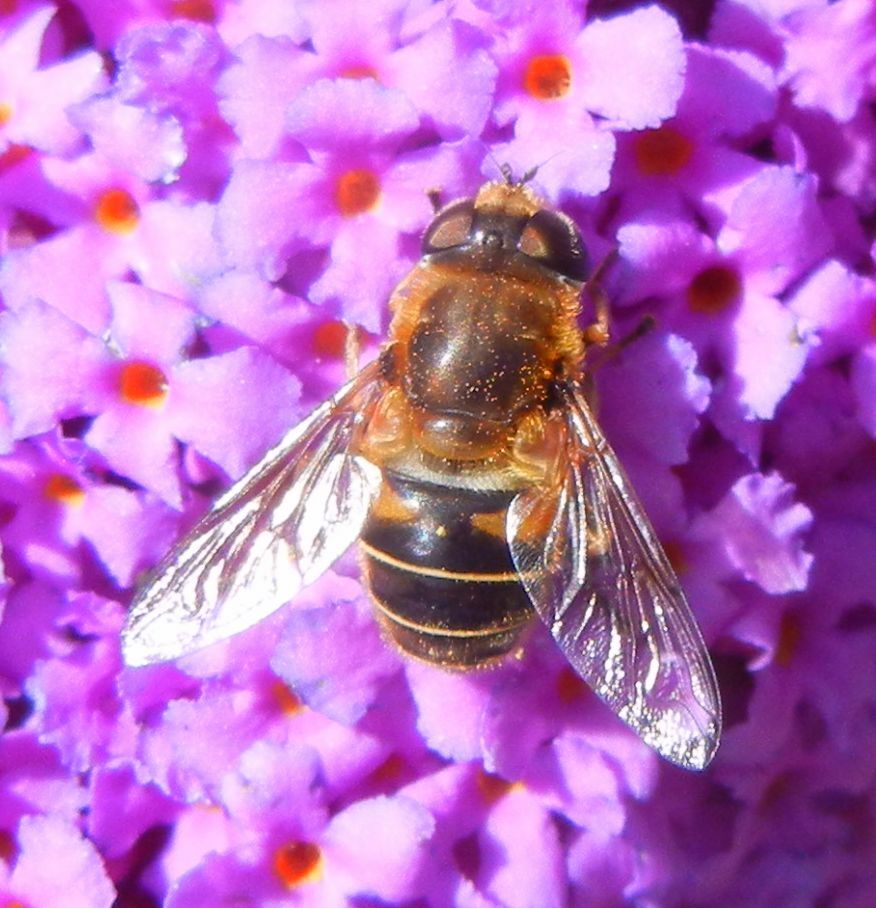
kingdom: Animalia
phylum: Arthropoda
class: Insecta
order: Diptera
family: Syrphidae
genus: Eristalis
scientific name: Eristalis nemorum
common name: Orange-spined drone fly
